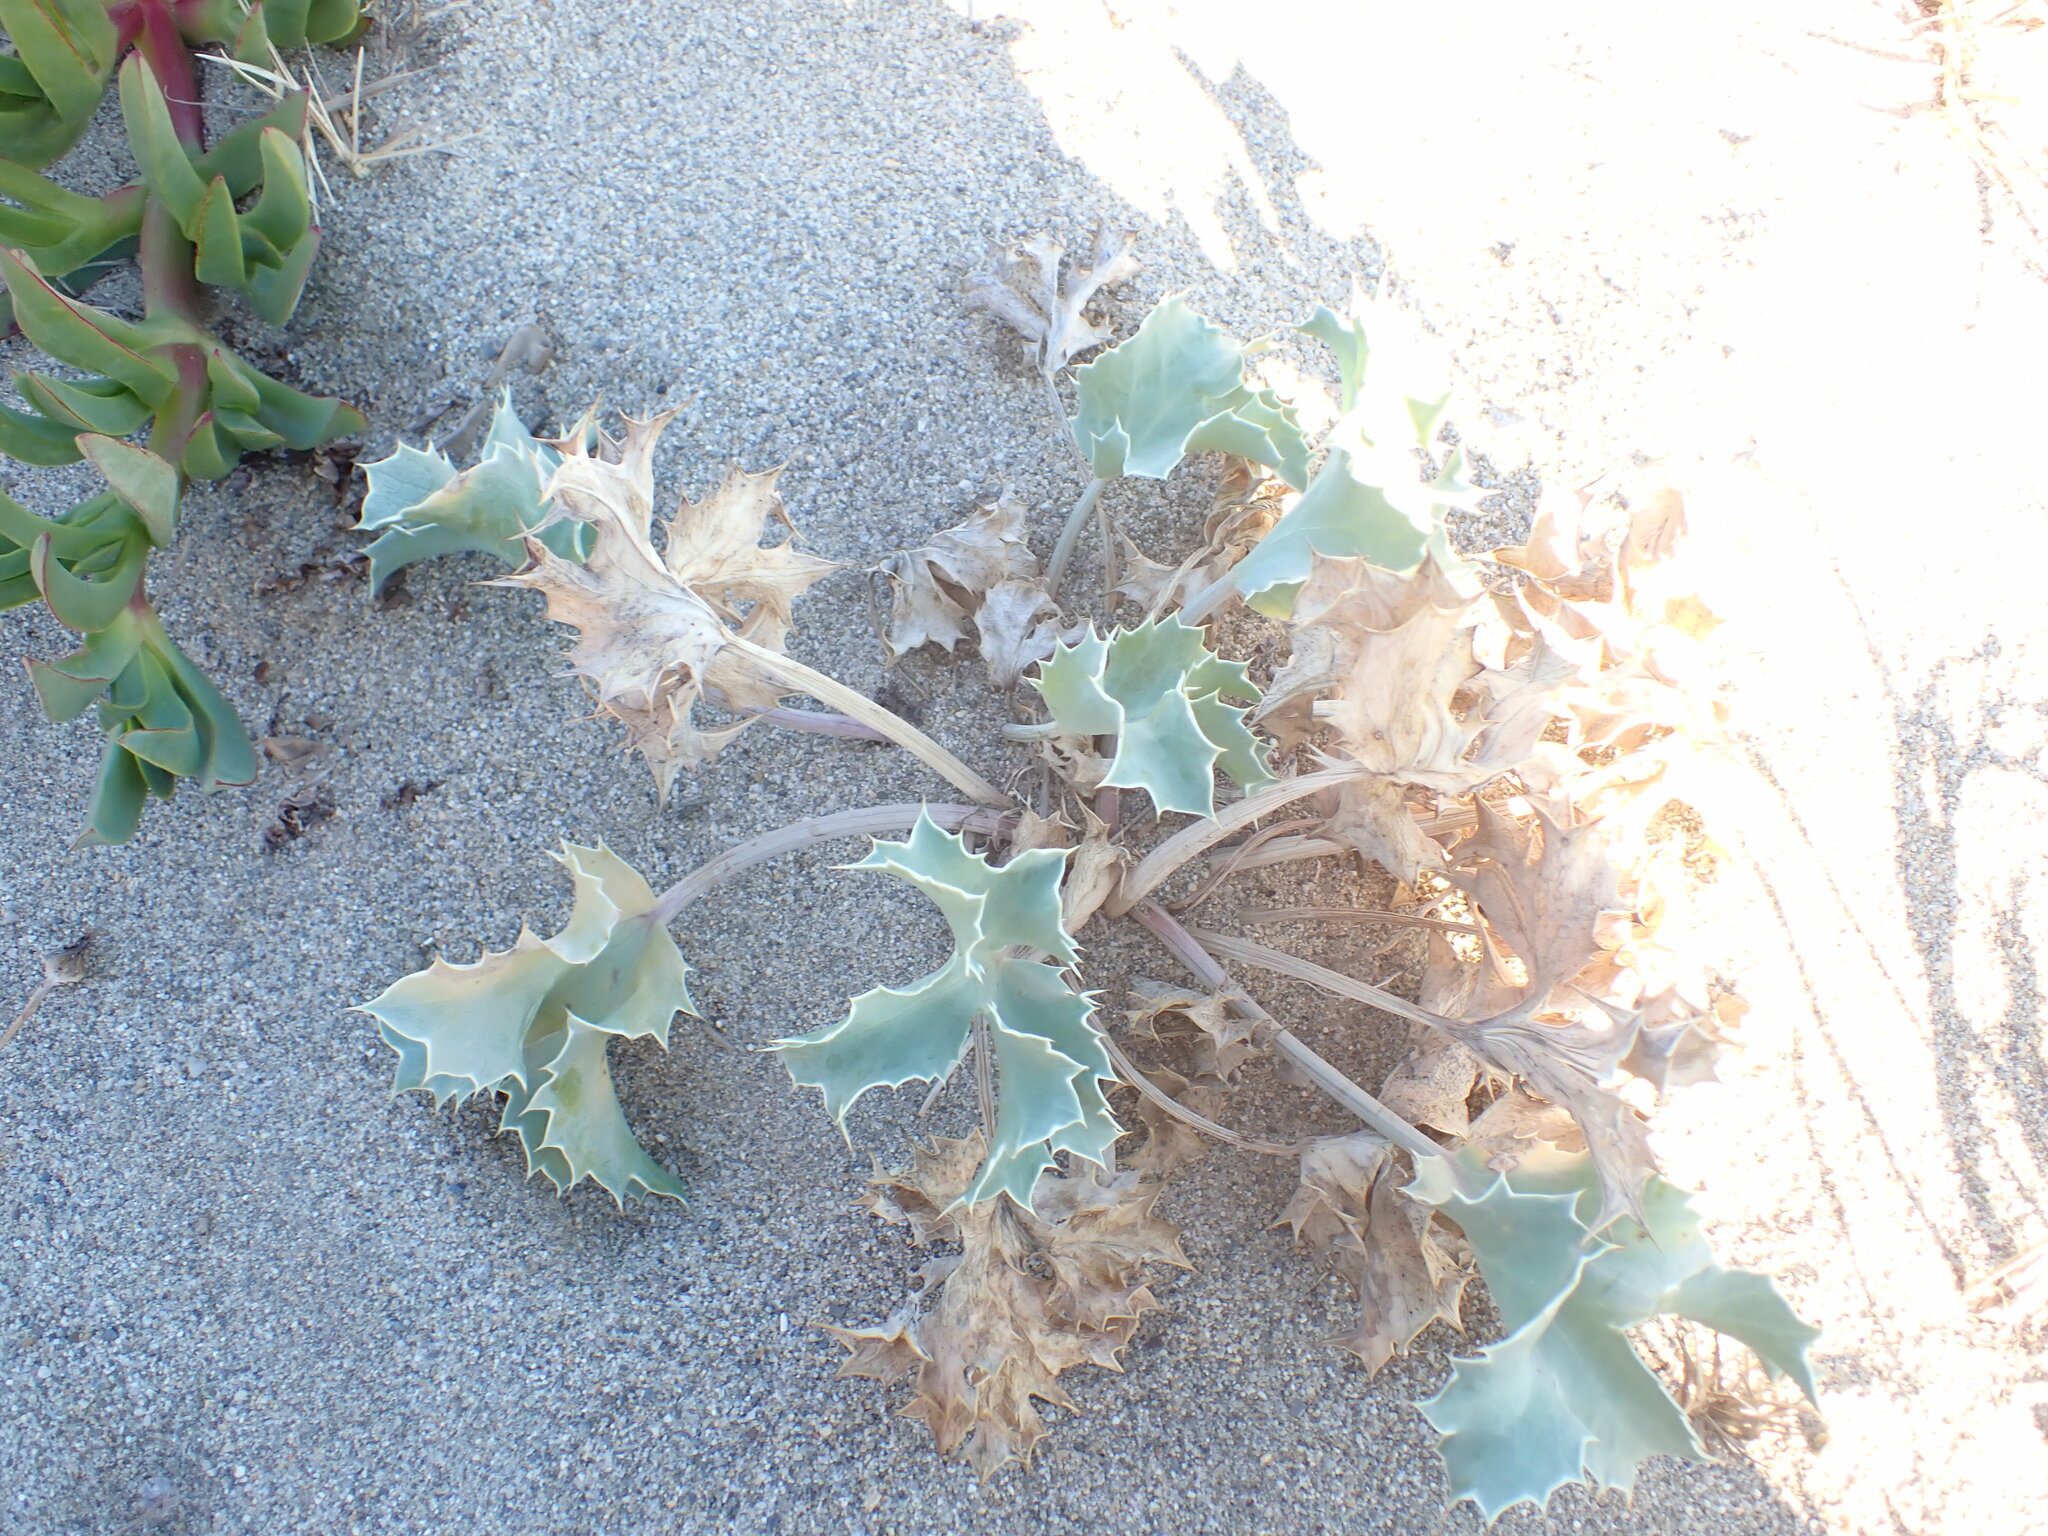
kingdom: Plantae
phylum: Tracheophyta
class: Magnoliopsida
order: Apiales
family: Apiaceae
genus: Eryngium
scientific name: Eryngium maritimum
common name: Sea-holly
